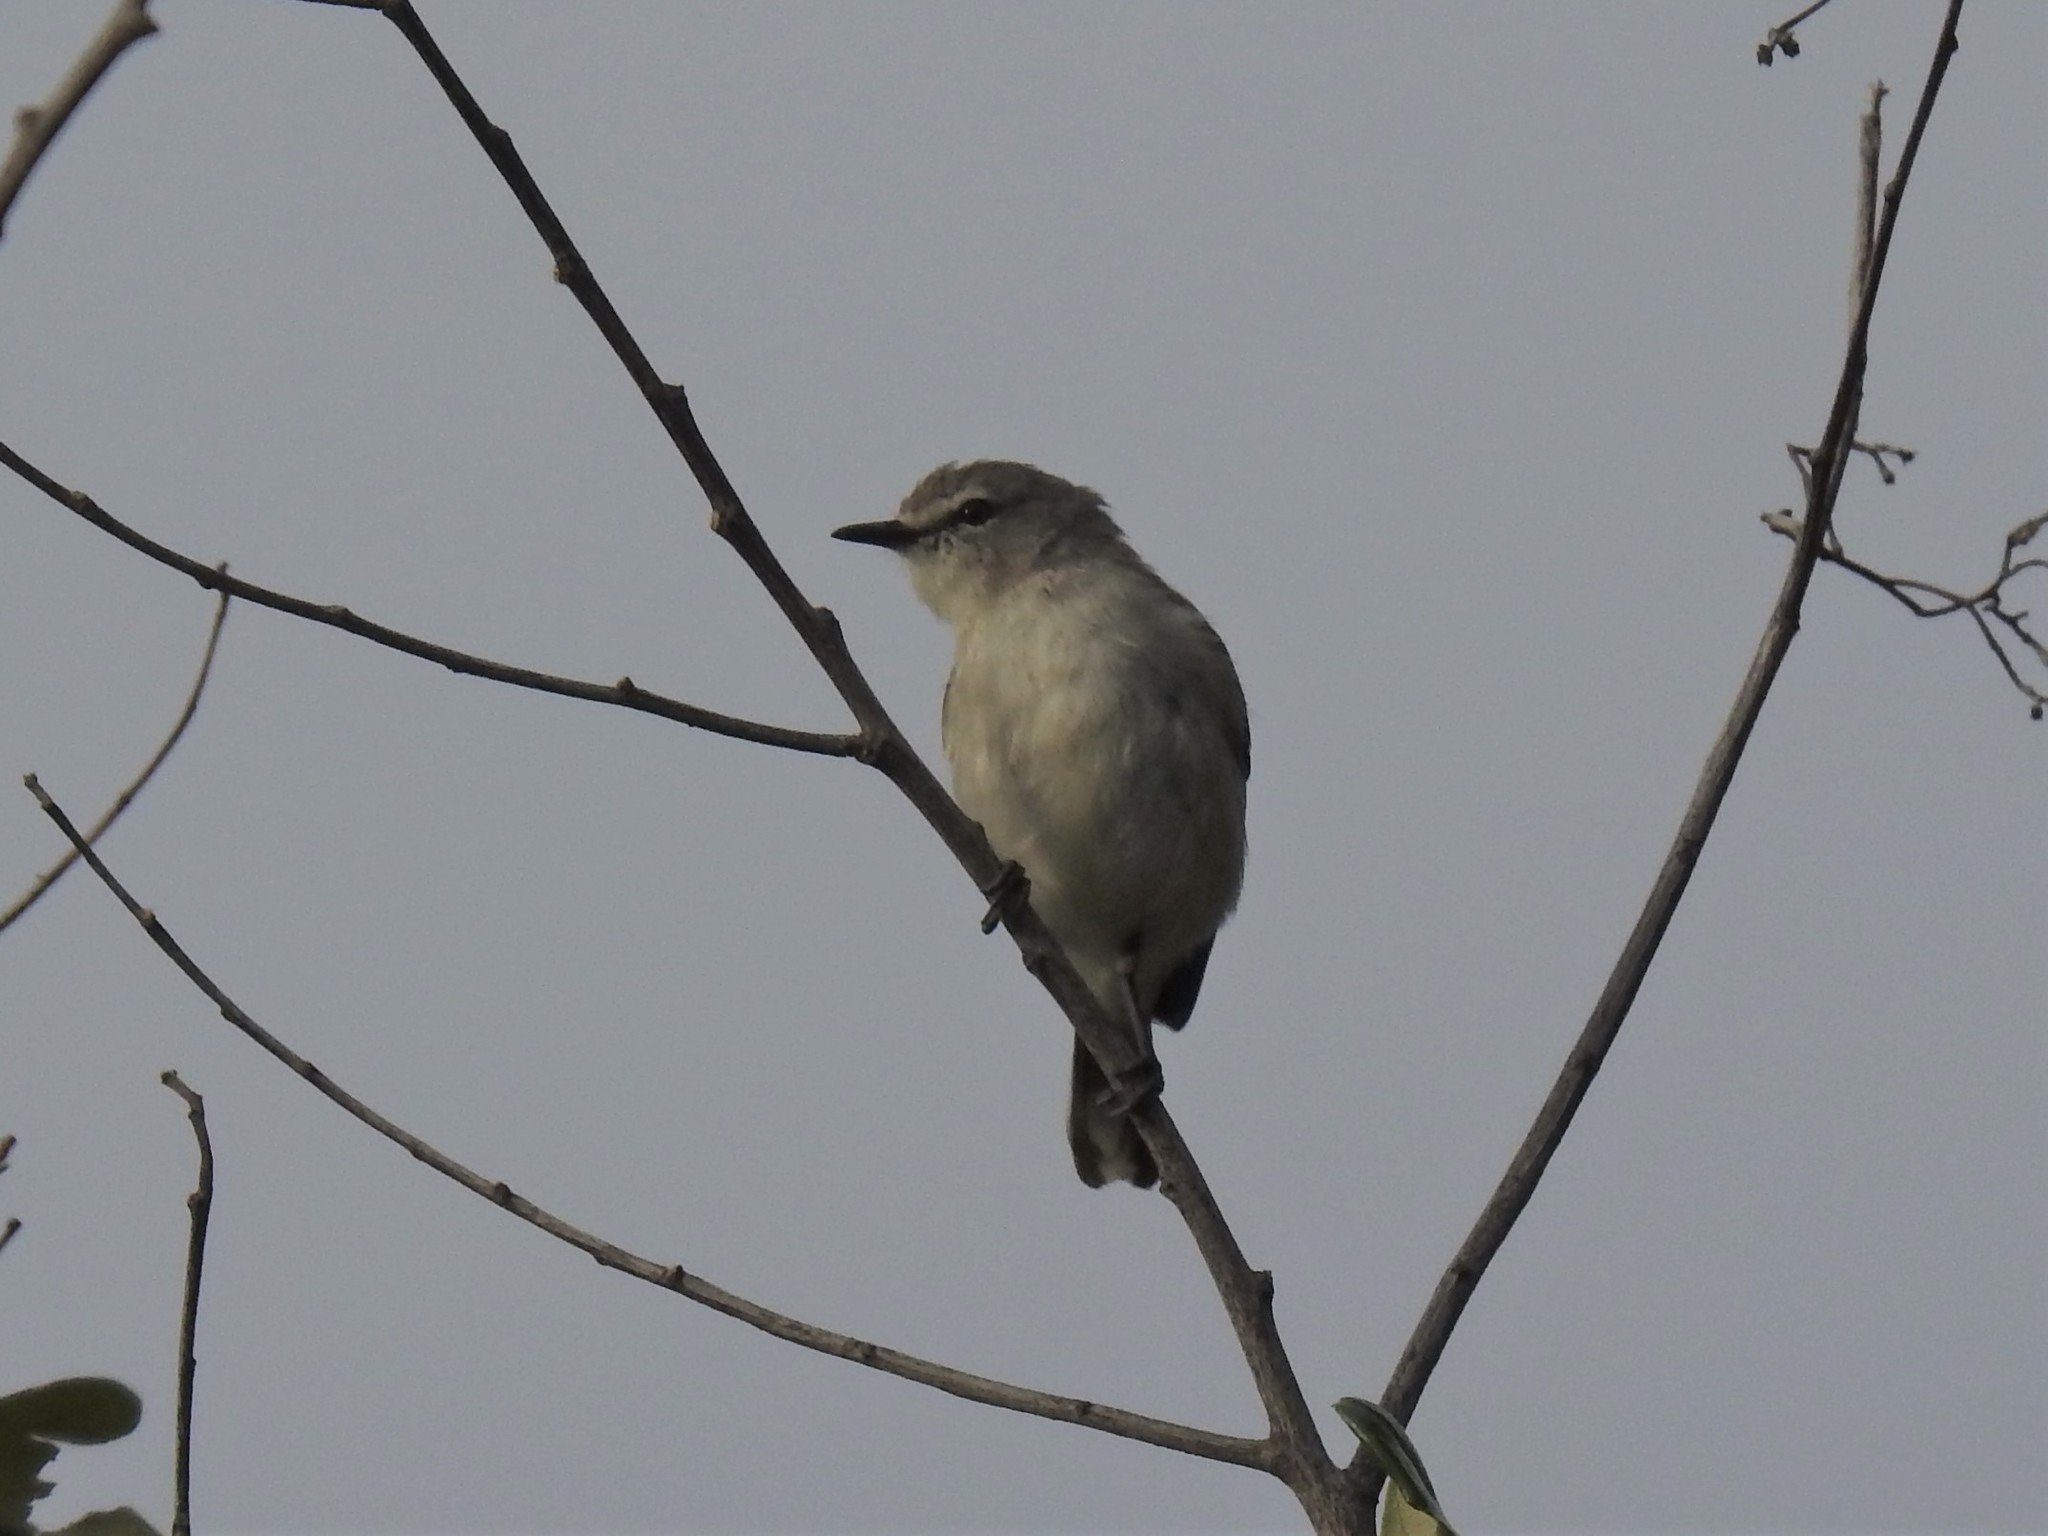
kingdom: Animalia
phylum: Chordata
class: Aves
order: Passeriformes
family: Acanthizidae
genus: Gerygone
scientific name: Gerygone levigaster
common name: Mangrove gerygone
